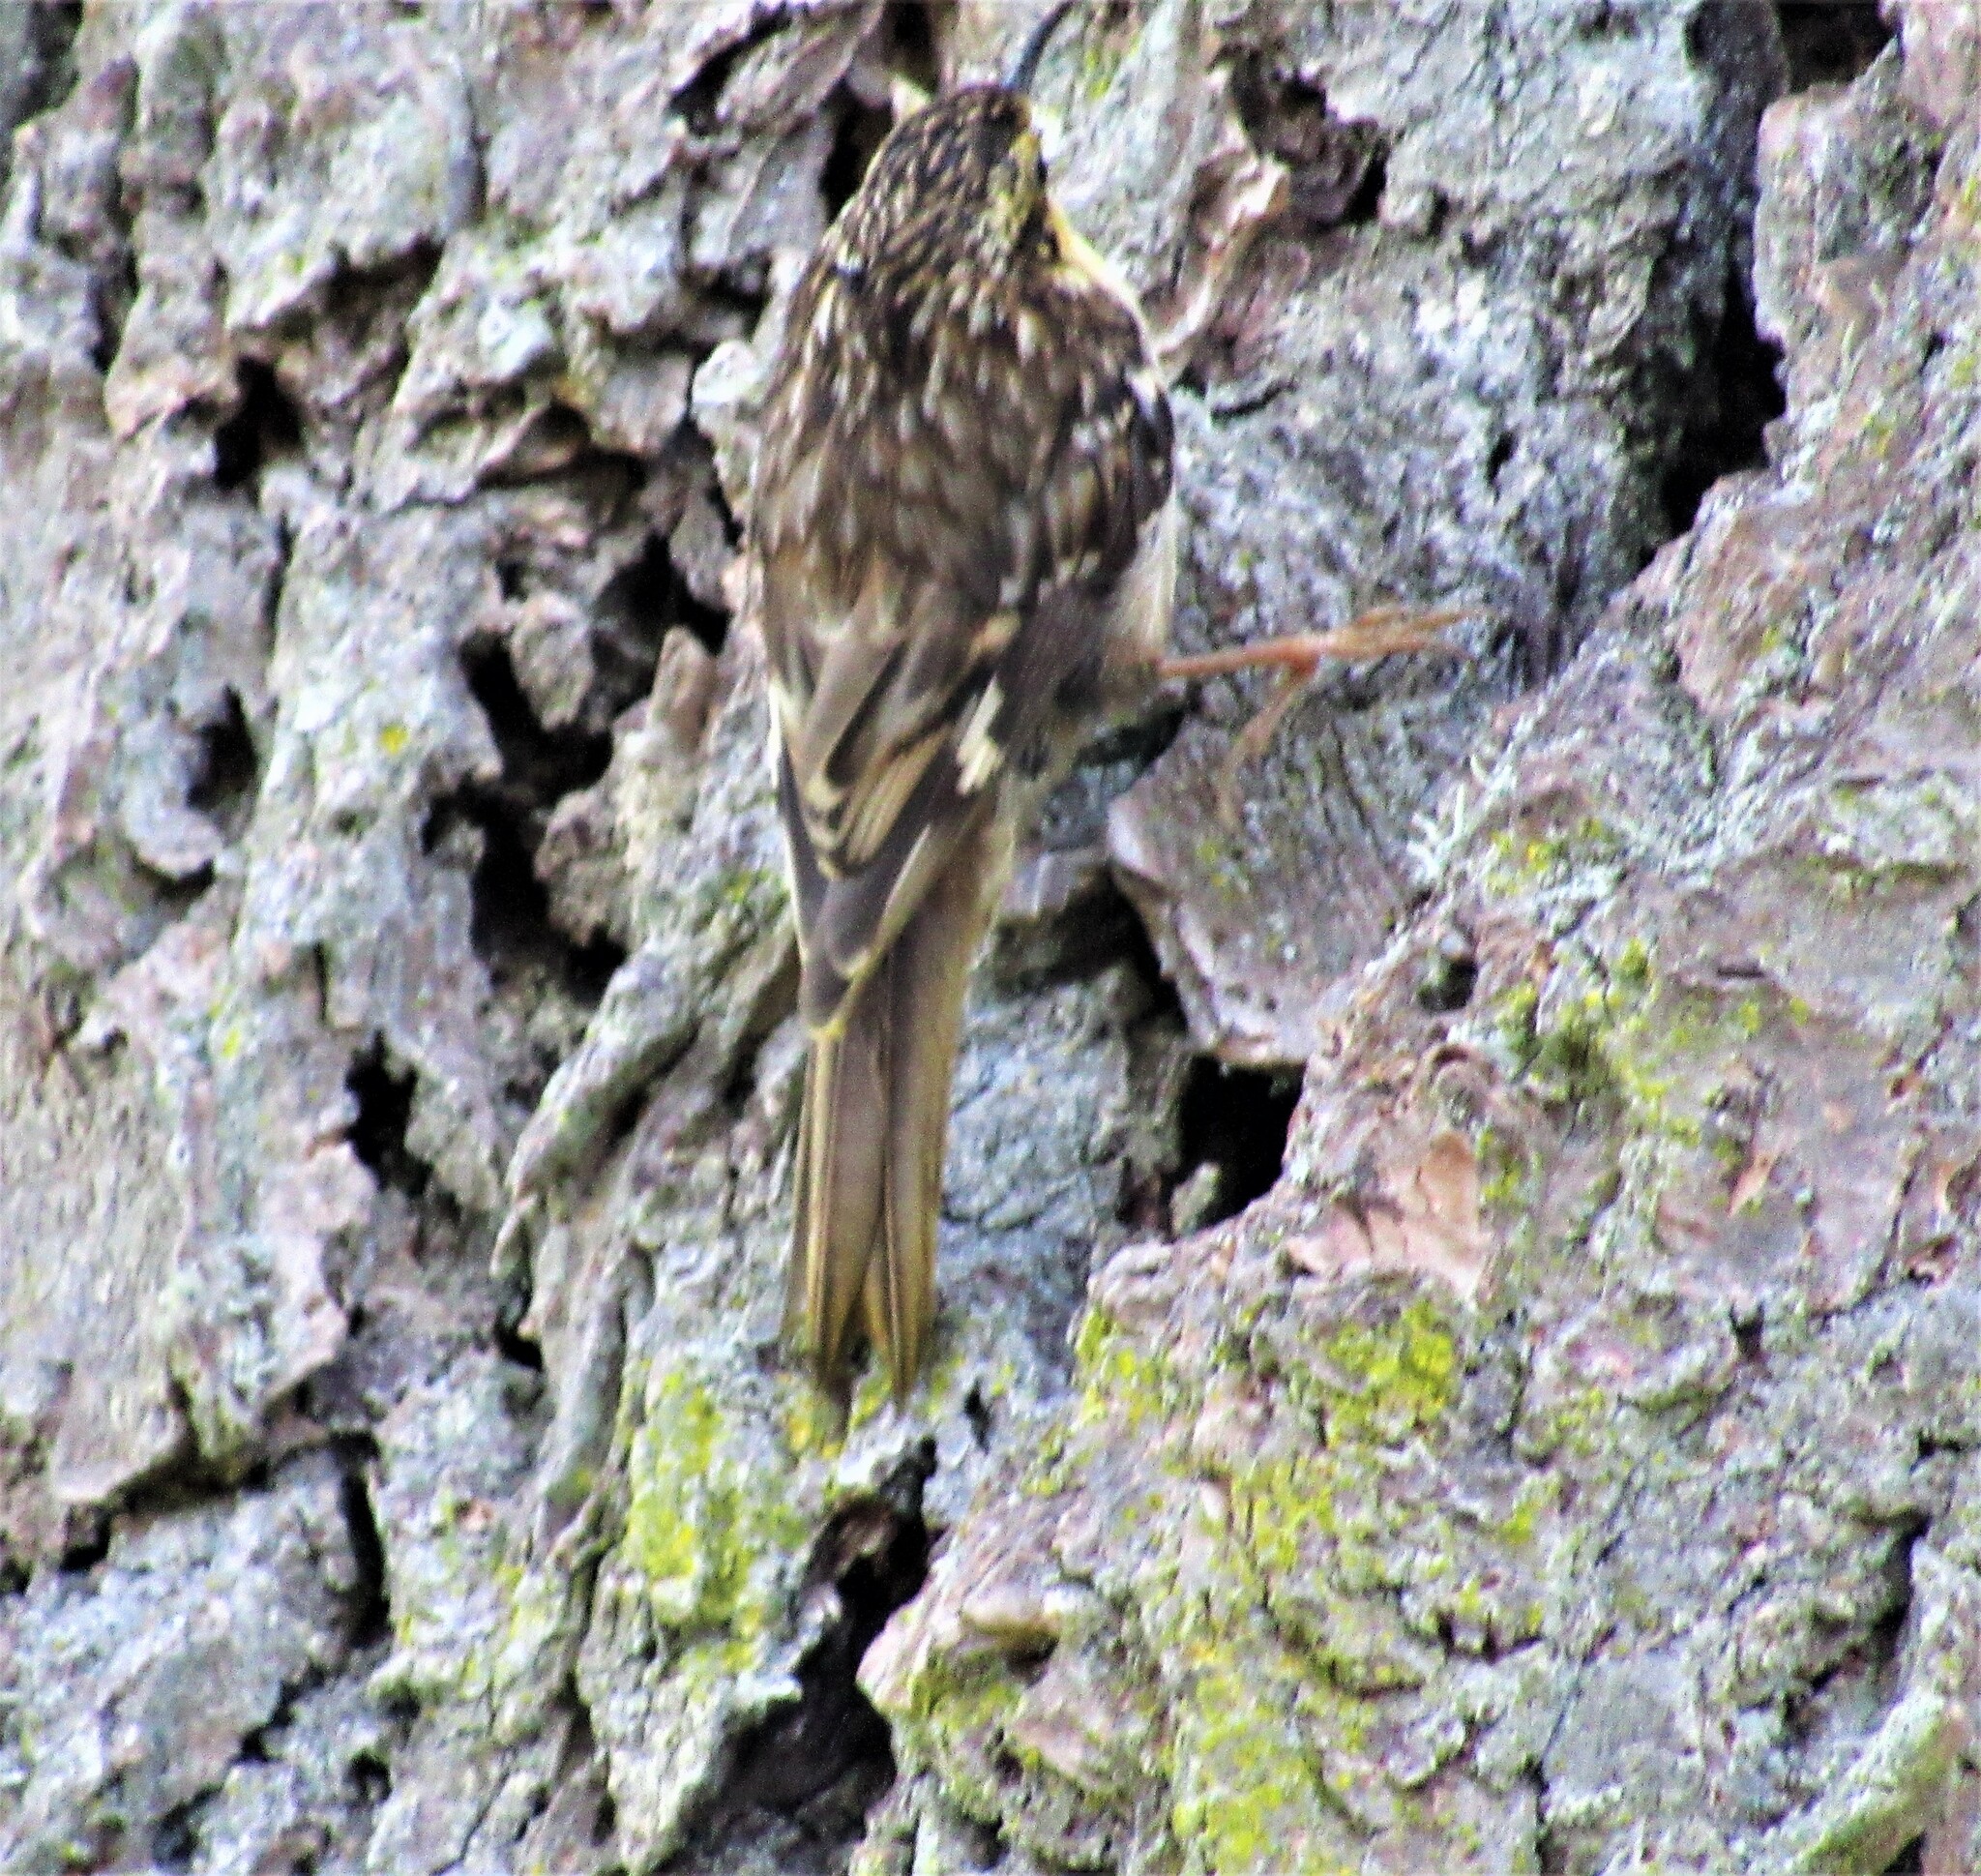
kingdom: Animalia
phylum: Chordata
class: Aves
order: Passeriformes
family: Certhiidae
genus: Certhia
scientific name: Certhia americana
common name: Brown creeper
